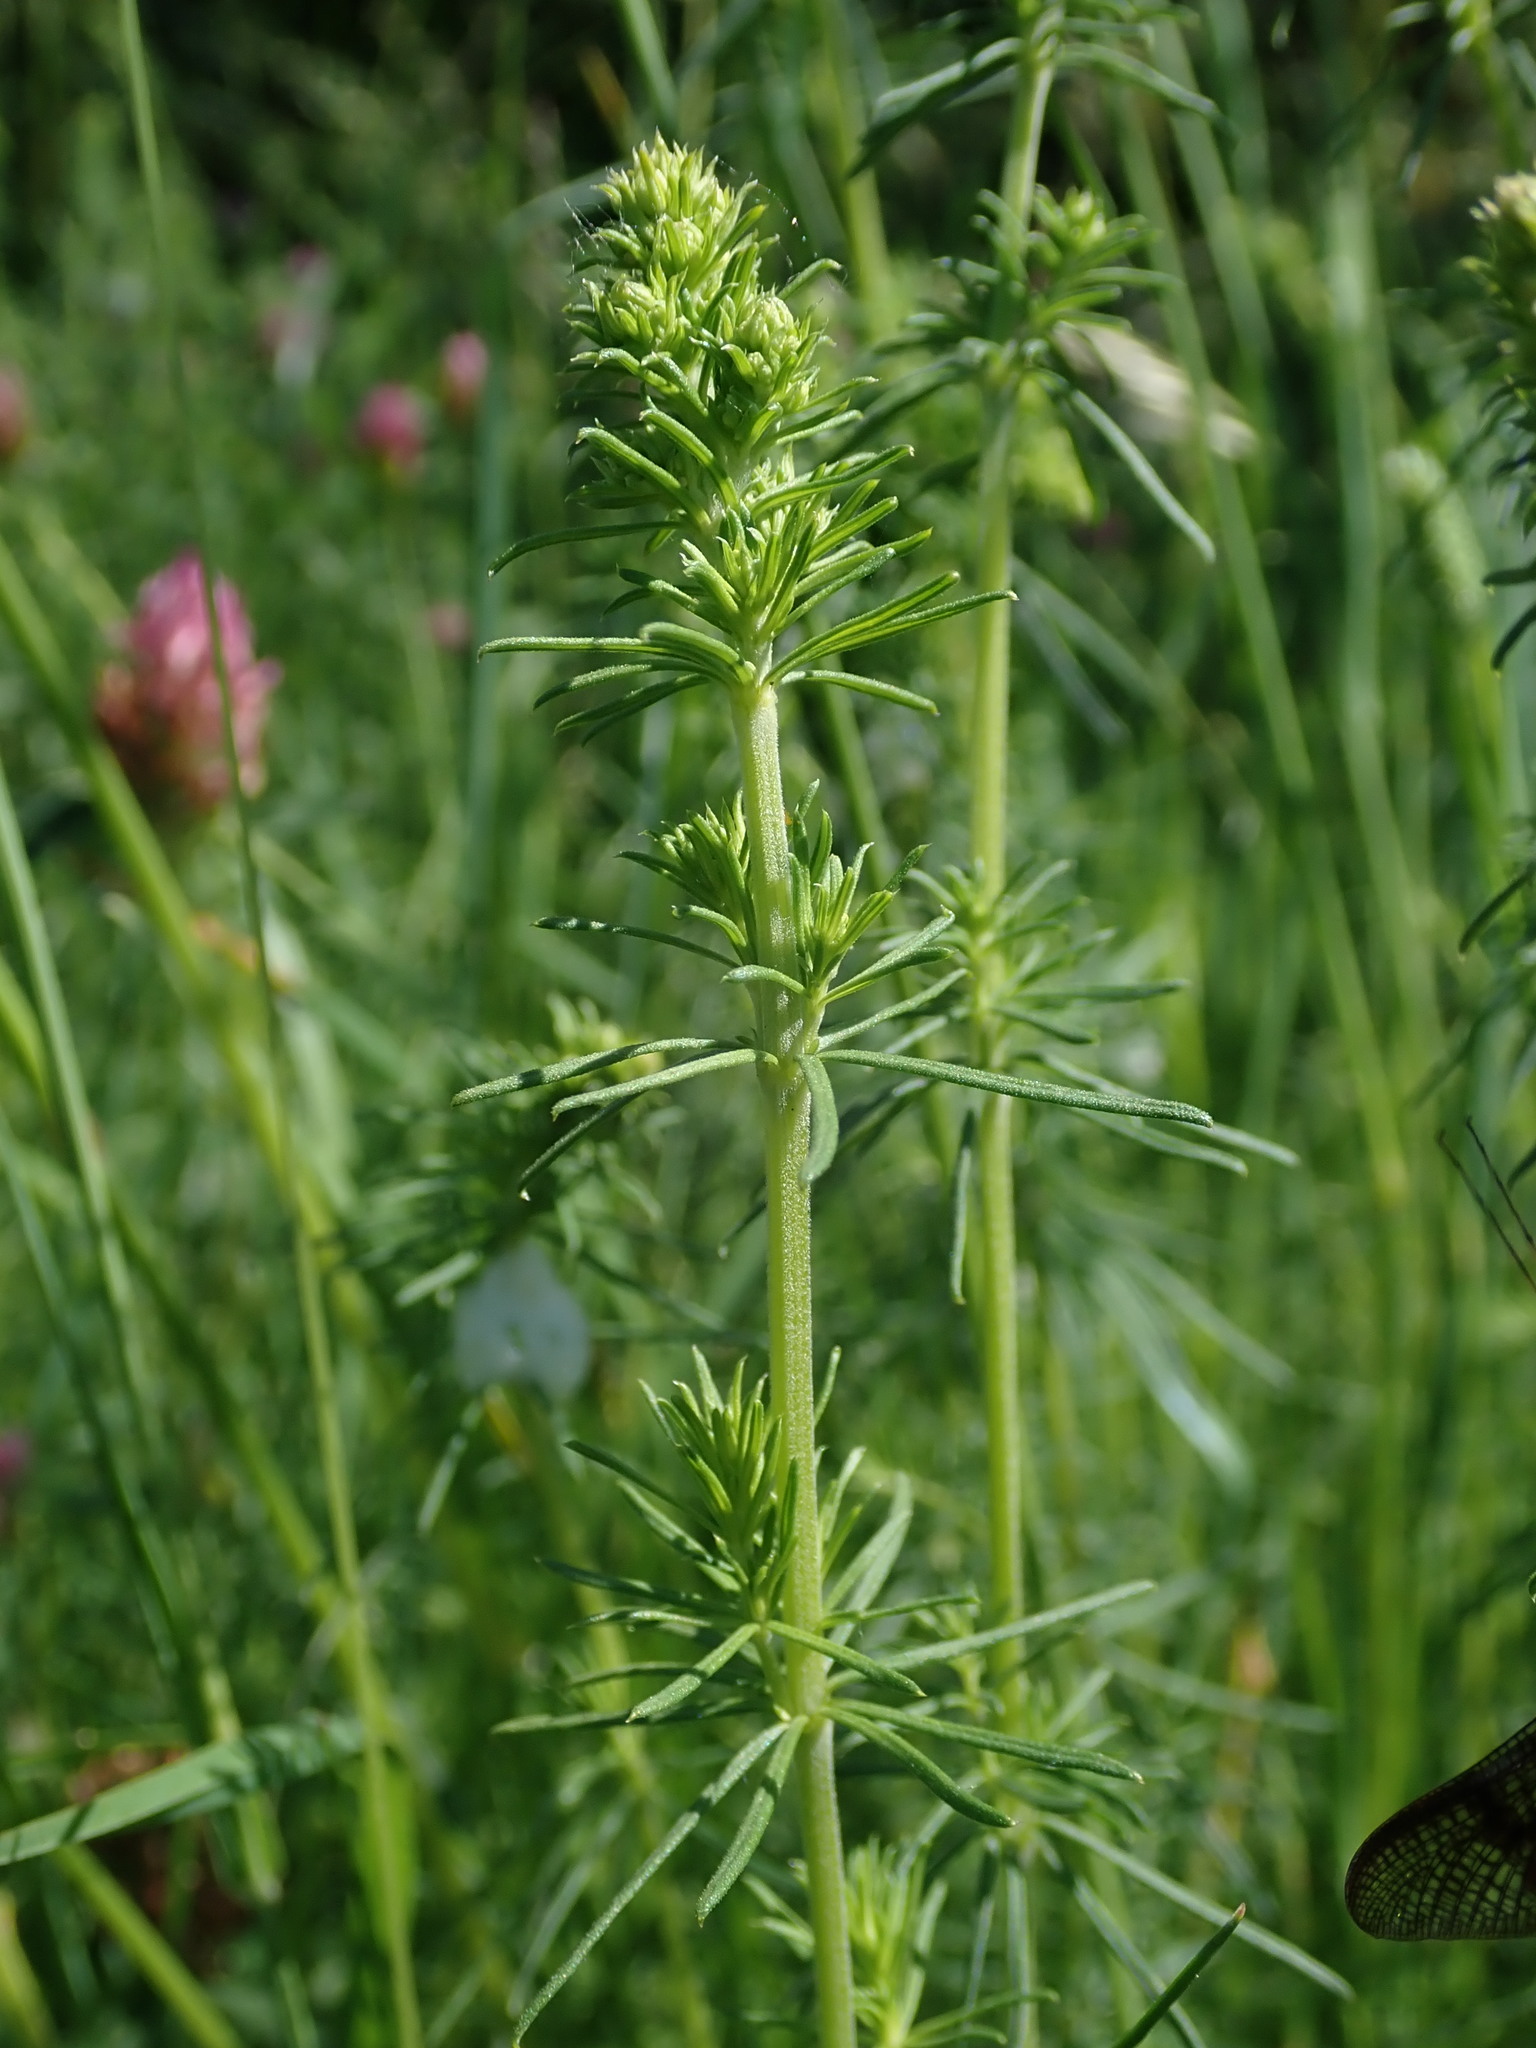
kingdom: Plantae
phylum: Tracheophyta
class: Magnoliopsida
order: Gentianales
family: Rubiaceae
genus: Galium
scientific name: Galium verum
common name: Lady's bedstraw
